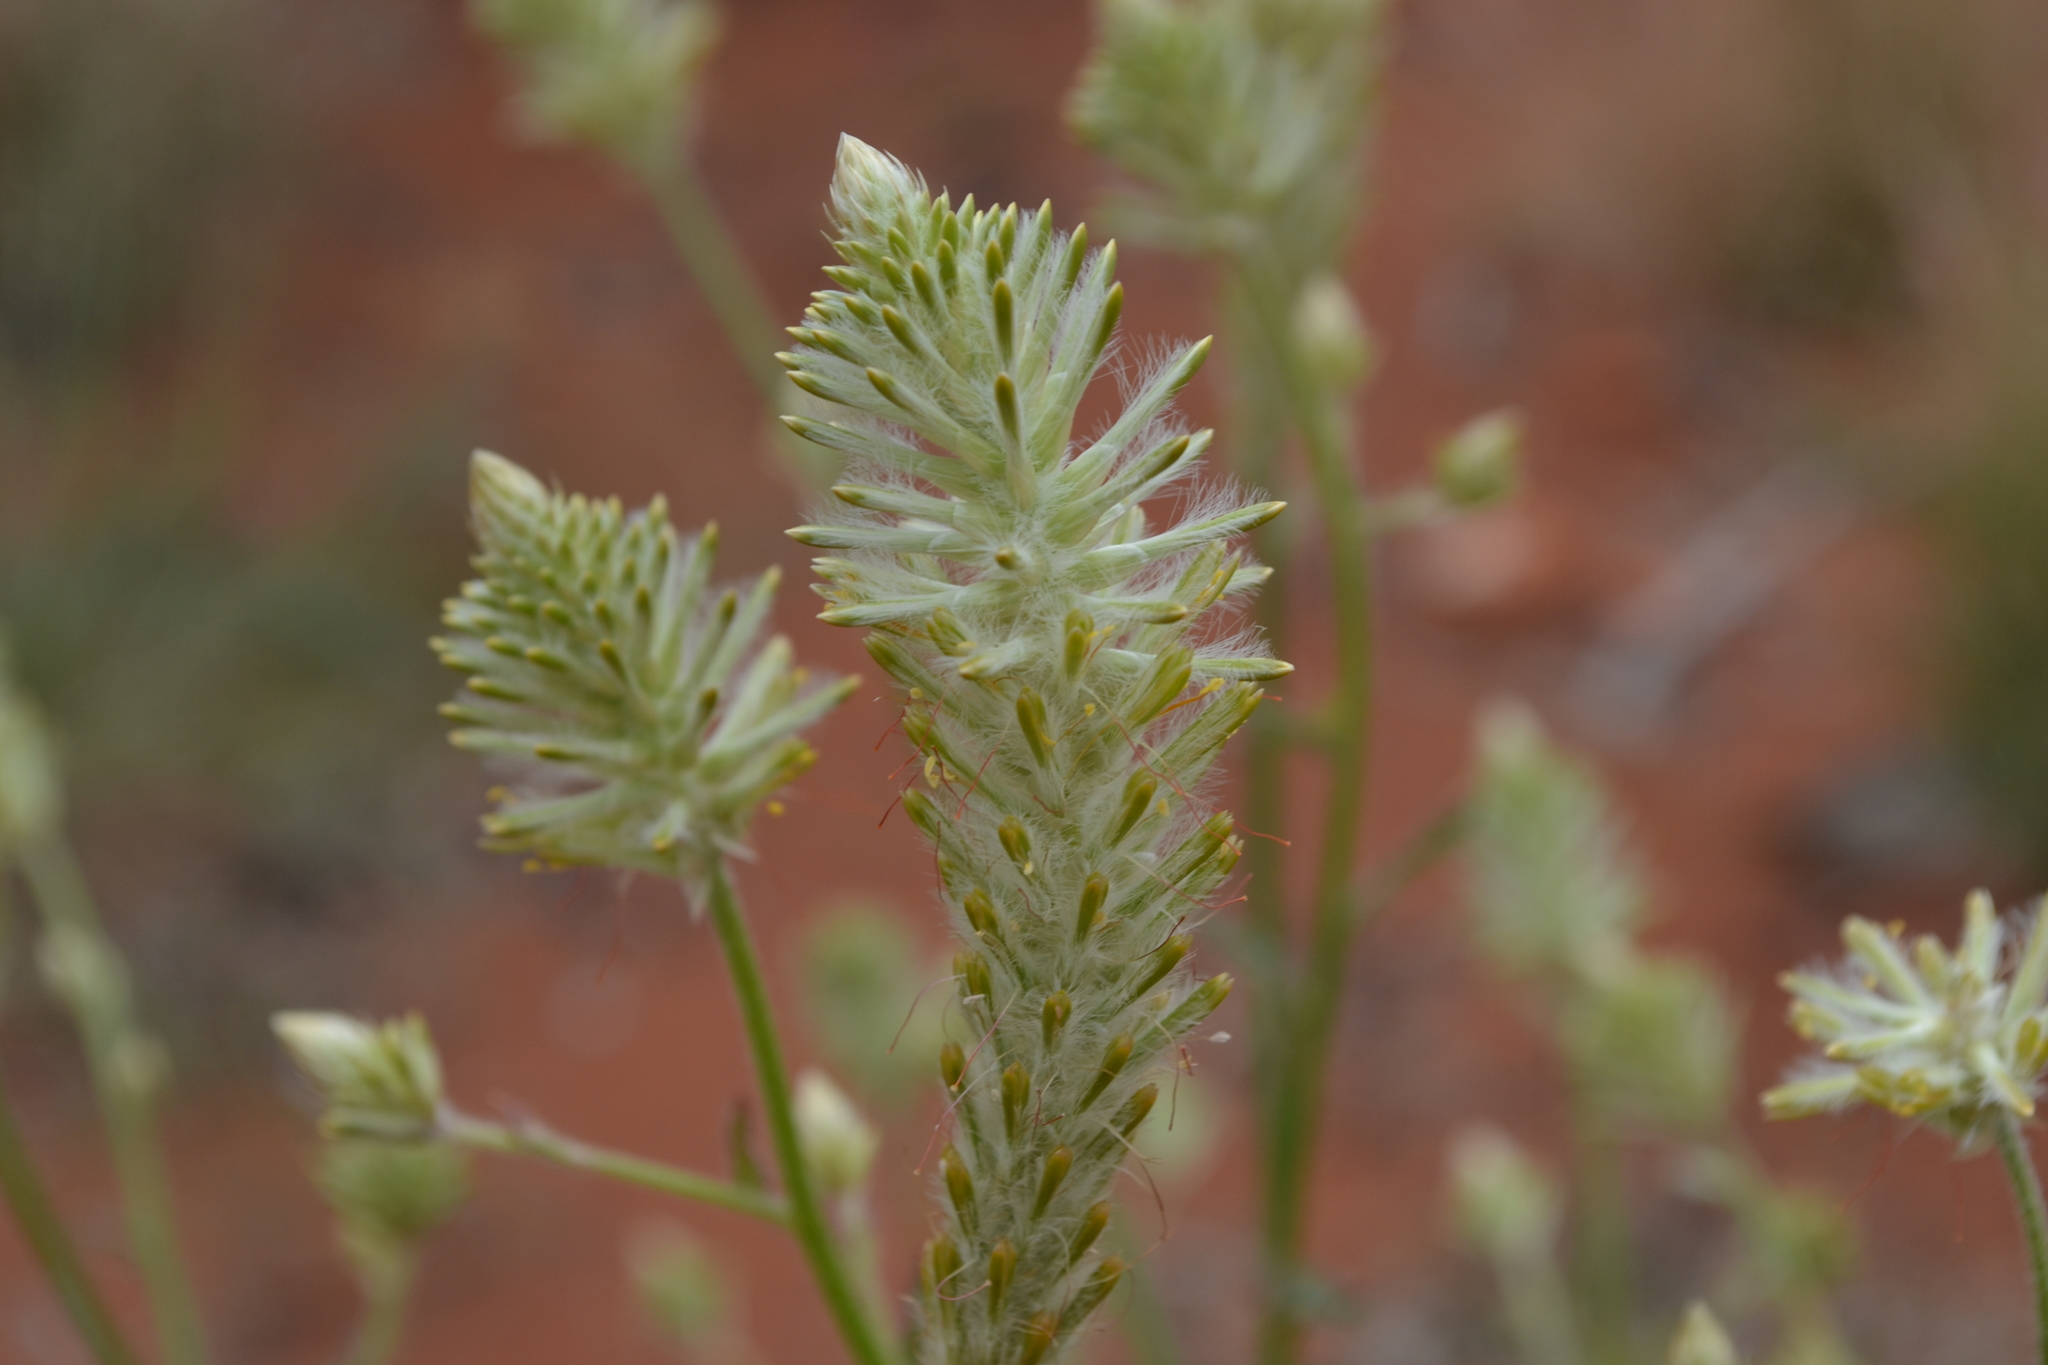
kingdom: Plantae
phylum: Tracheophyta
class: Magnoliopsida
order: Caryophyllales
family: Amaranthaceae
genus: Ptilotus
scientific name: Ptilotus polystachyus
